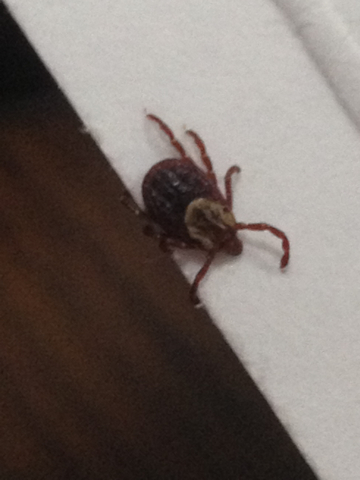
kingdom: Animalia
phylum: Arthropoda
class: Arachnida
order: Ixodida
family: Ixodidae
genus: Dermacentor
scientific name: Dermacentor variabilis
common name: American dog tick
